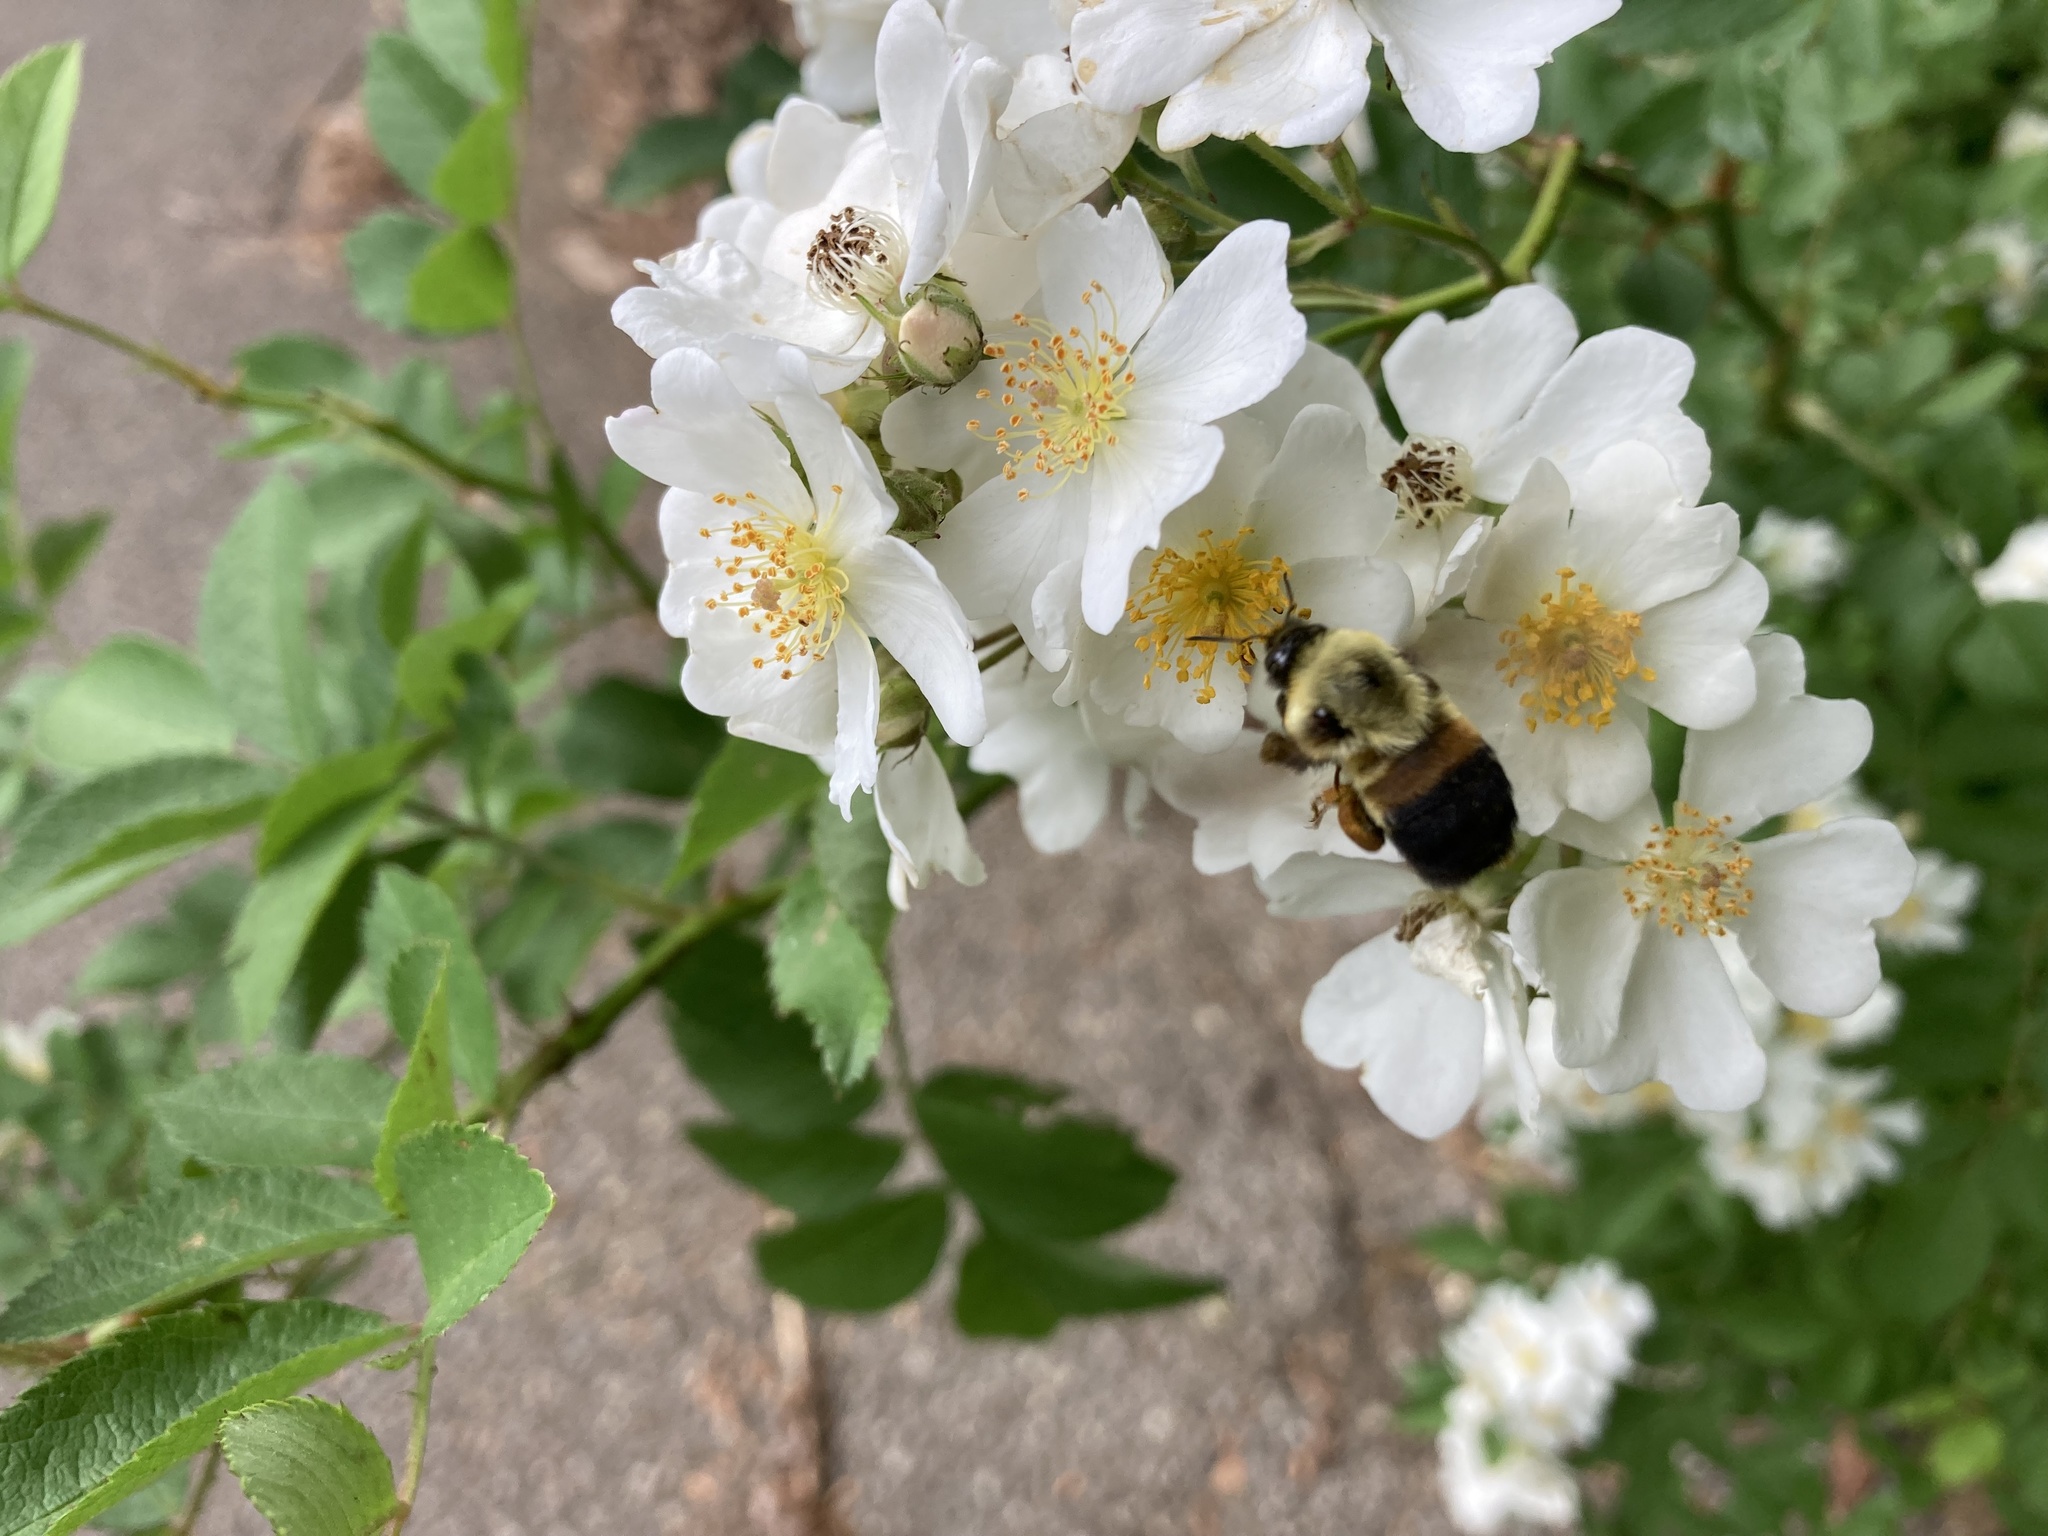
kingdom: Animalia
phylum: Arthropoda
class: Insecta
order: Hymenoptera
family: Apidae
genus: Bombus
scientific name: Bombus griseocollis
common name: Brown-belted bumble bee
